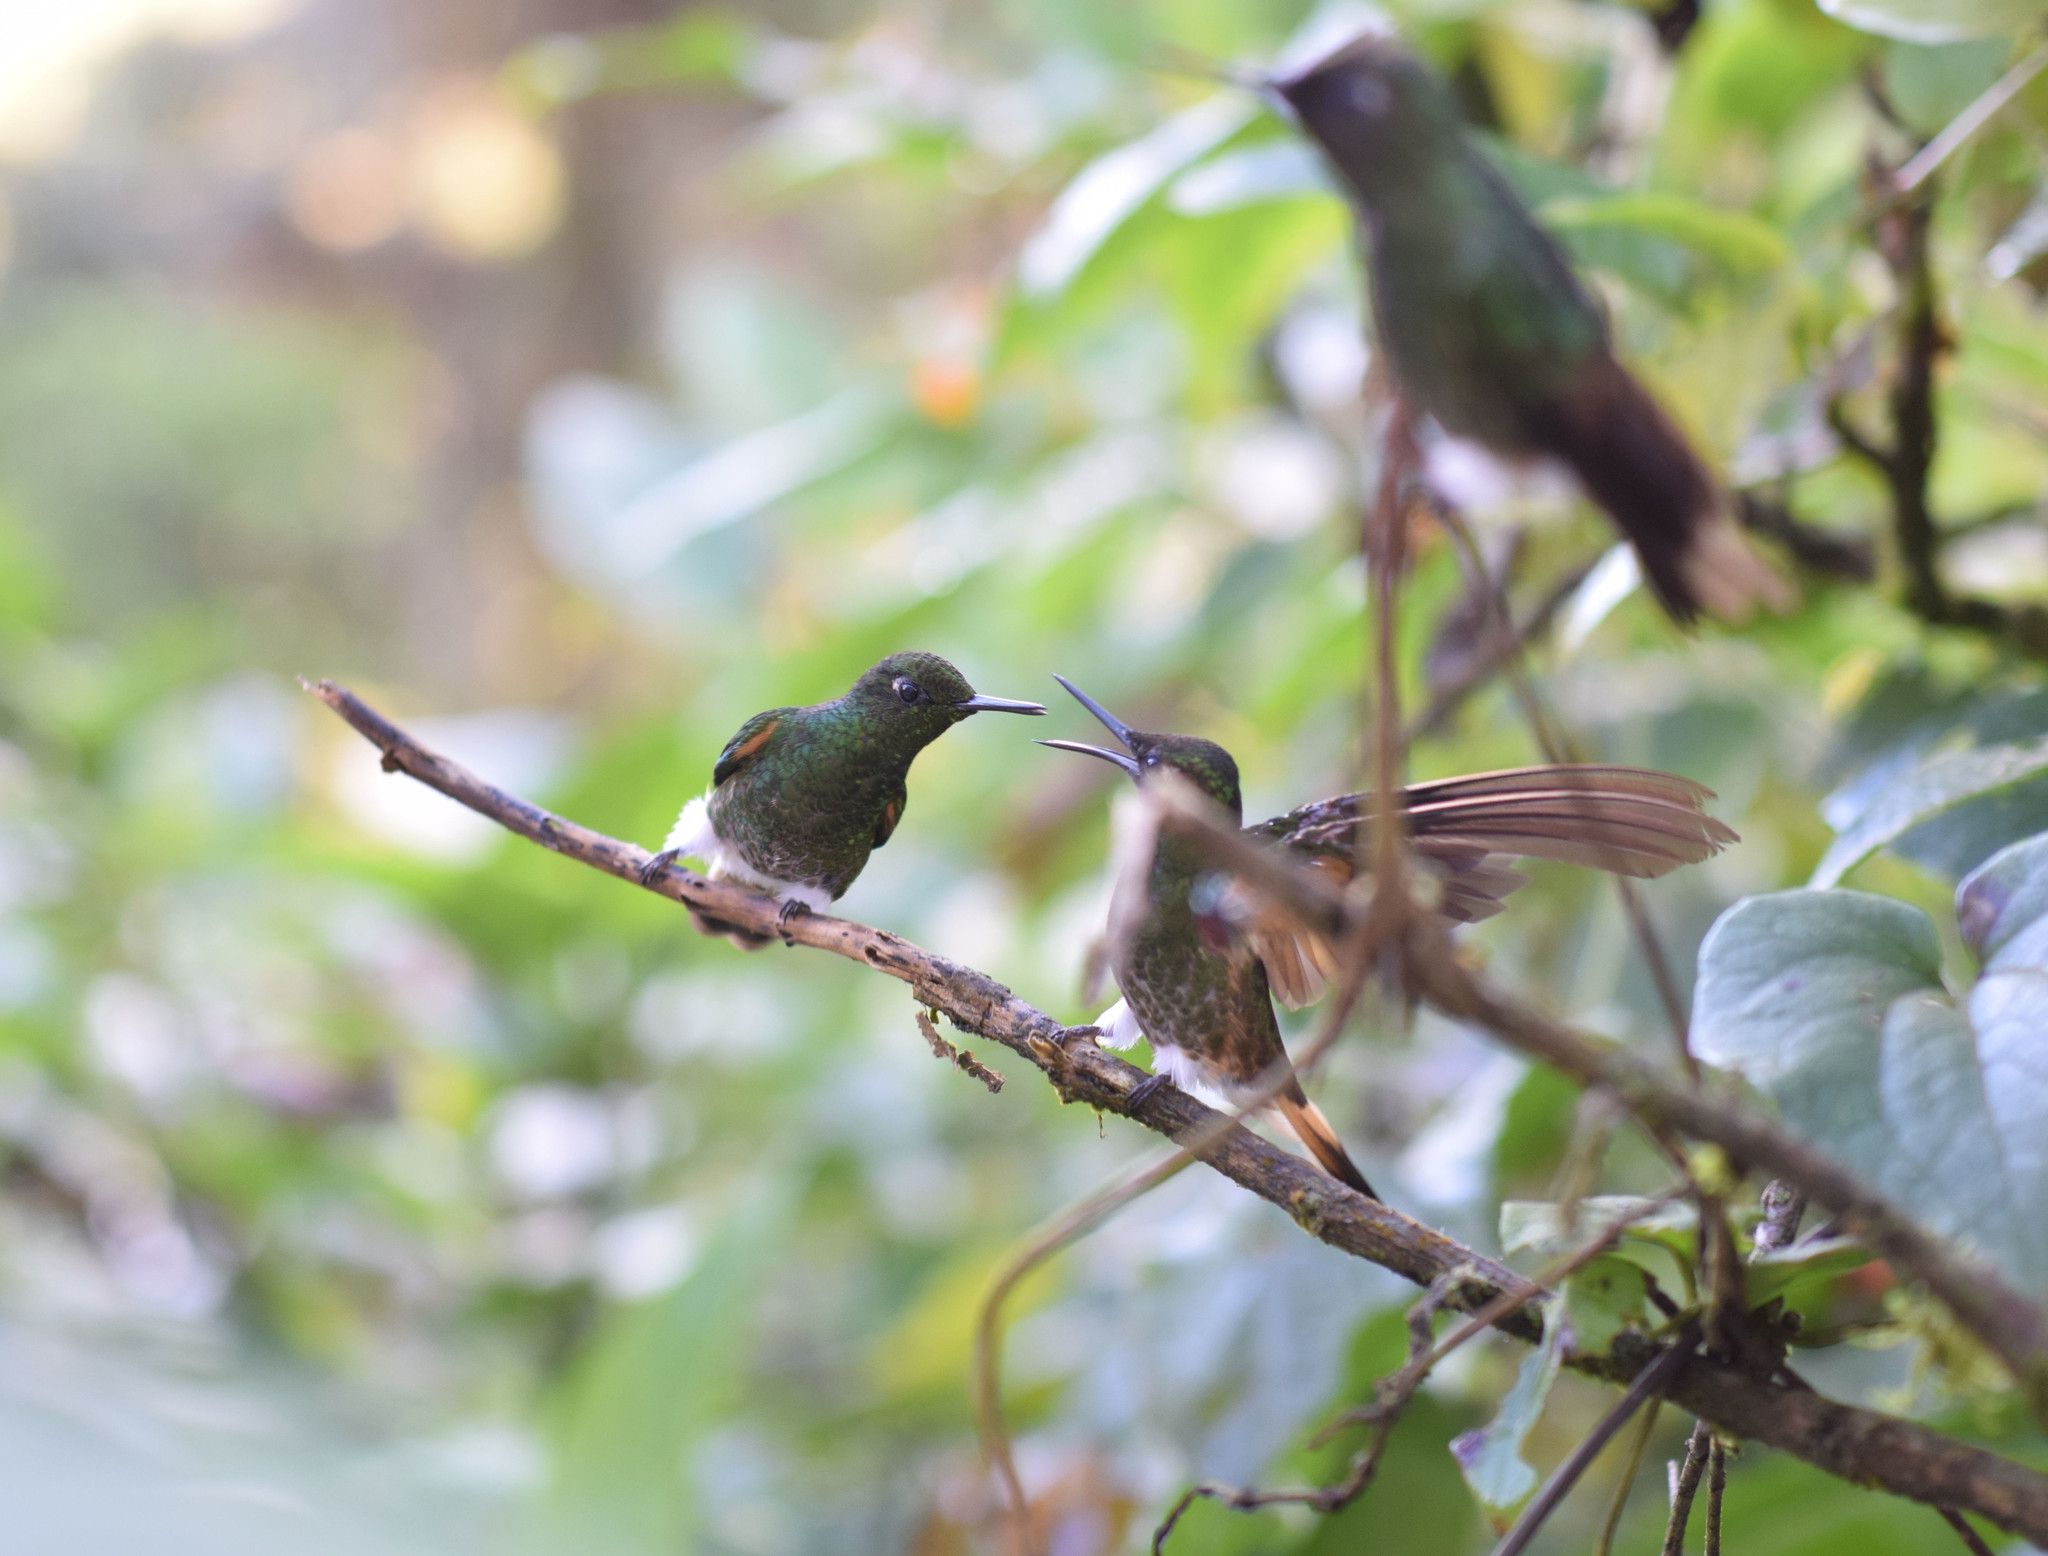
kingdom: Animalia
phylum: Chordata
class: Aves
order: Apodiformes
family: Trochilidae
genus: Boissonneaua
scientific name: Boissonneaua flavescens
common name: Buff-tailed coronet
